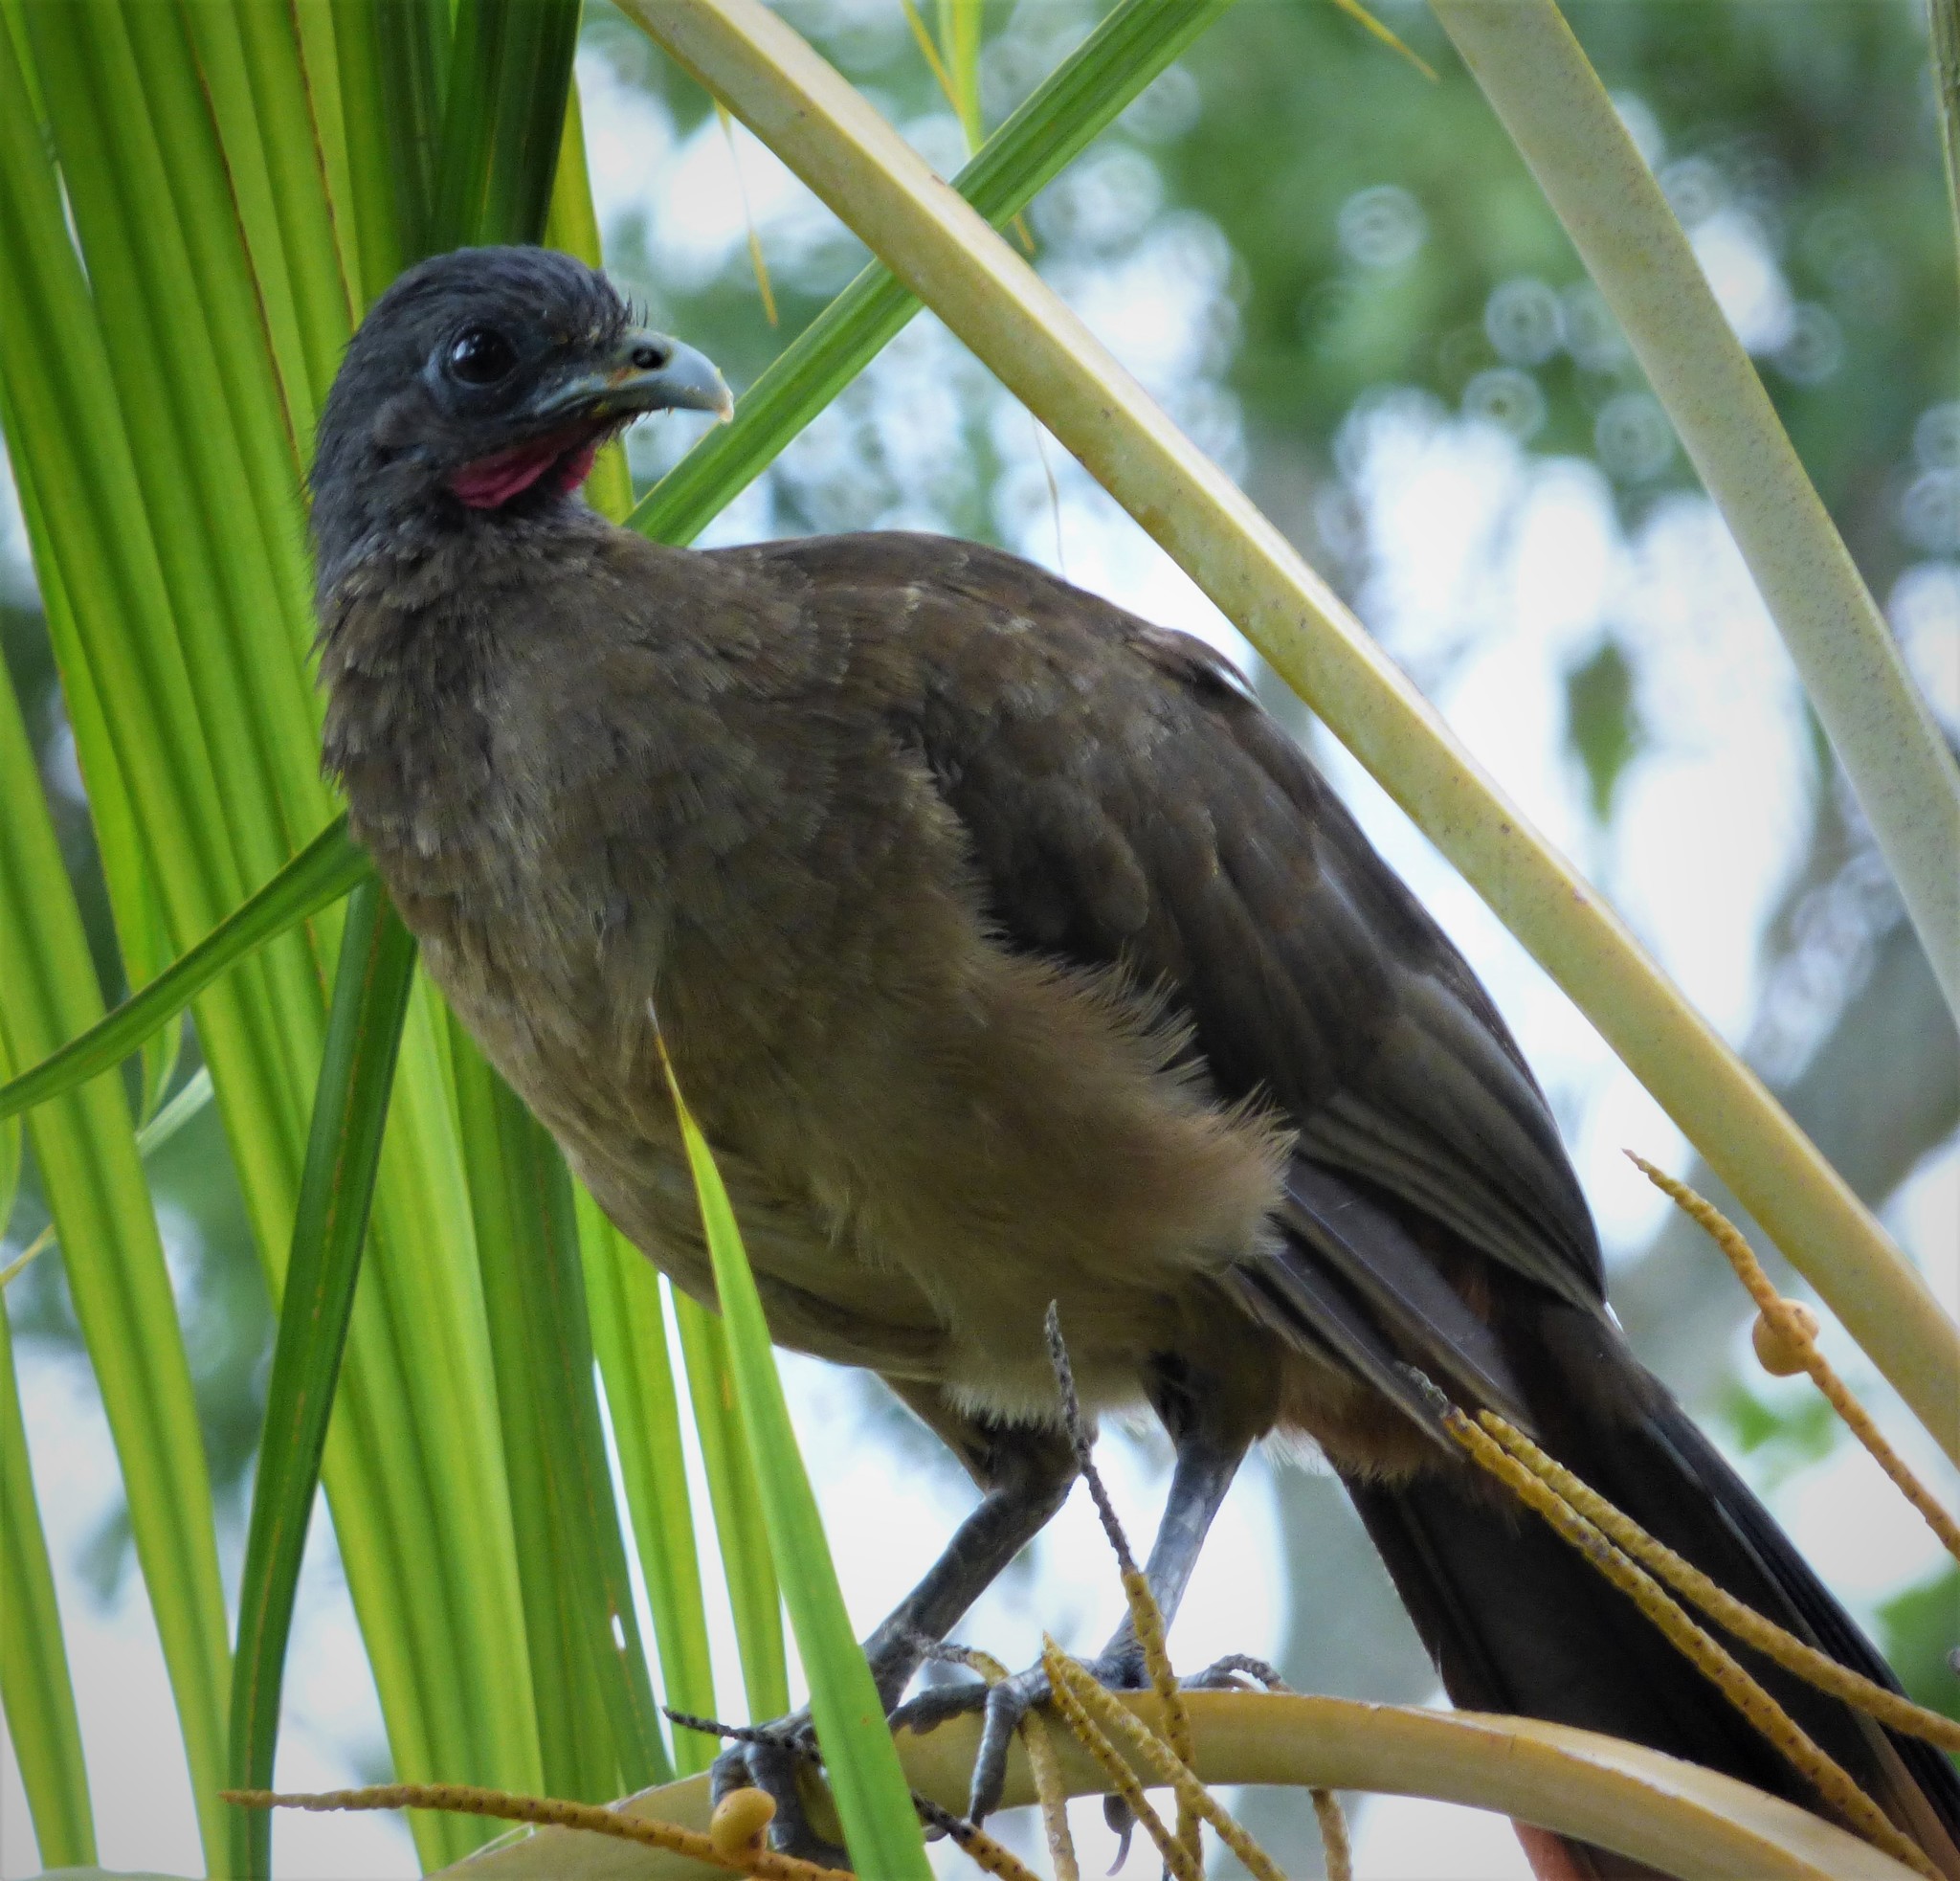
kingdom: Animalia
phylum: Chordata
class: Aves
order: Galliformes
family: Cracidae
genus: Ortalis
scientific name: Ortalis ruficauda
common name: Rufous-vented chachalaca
